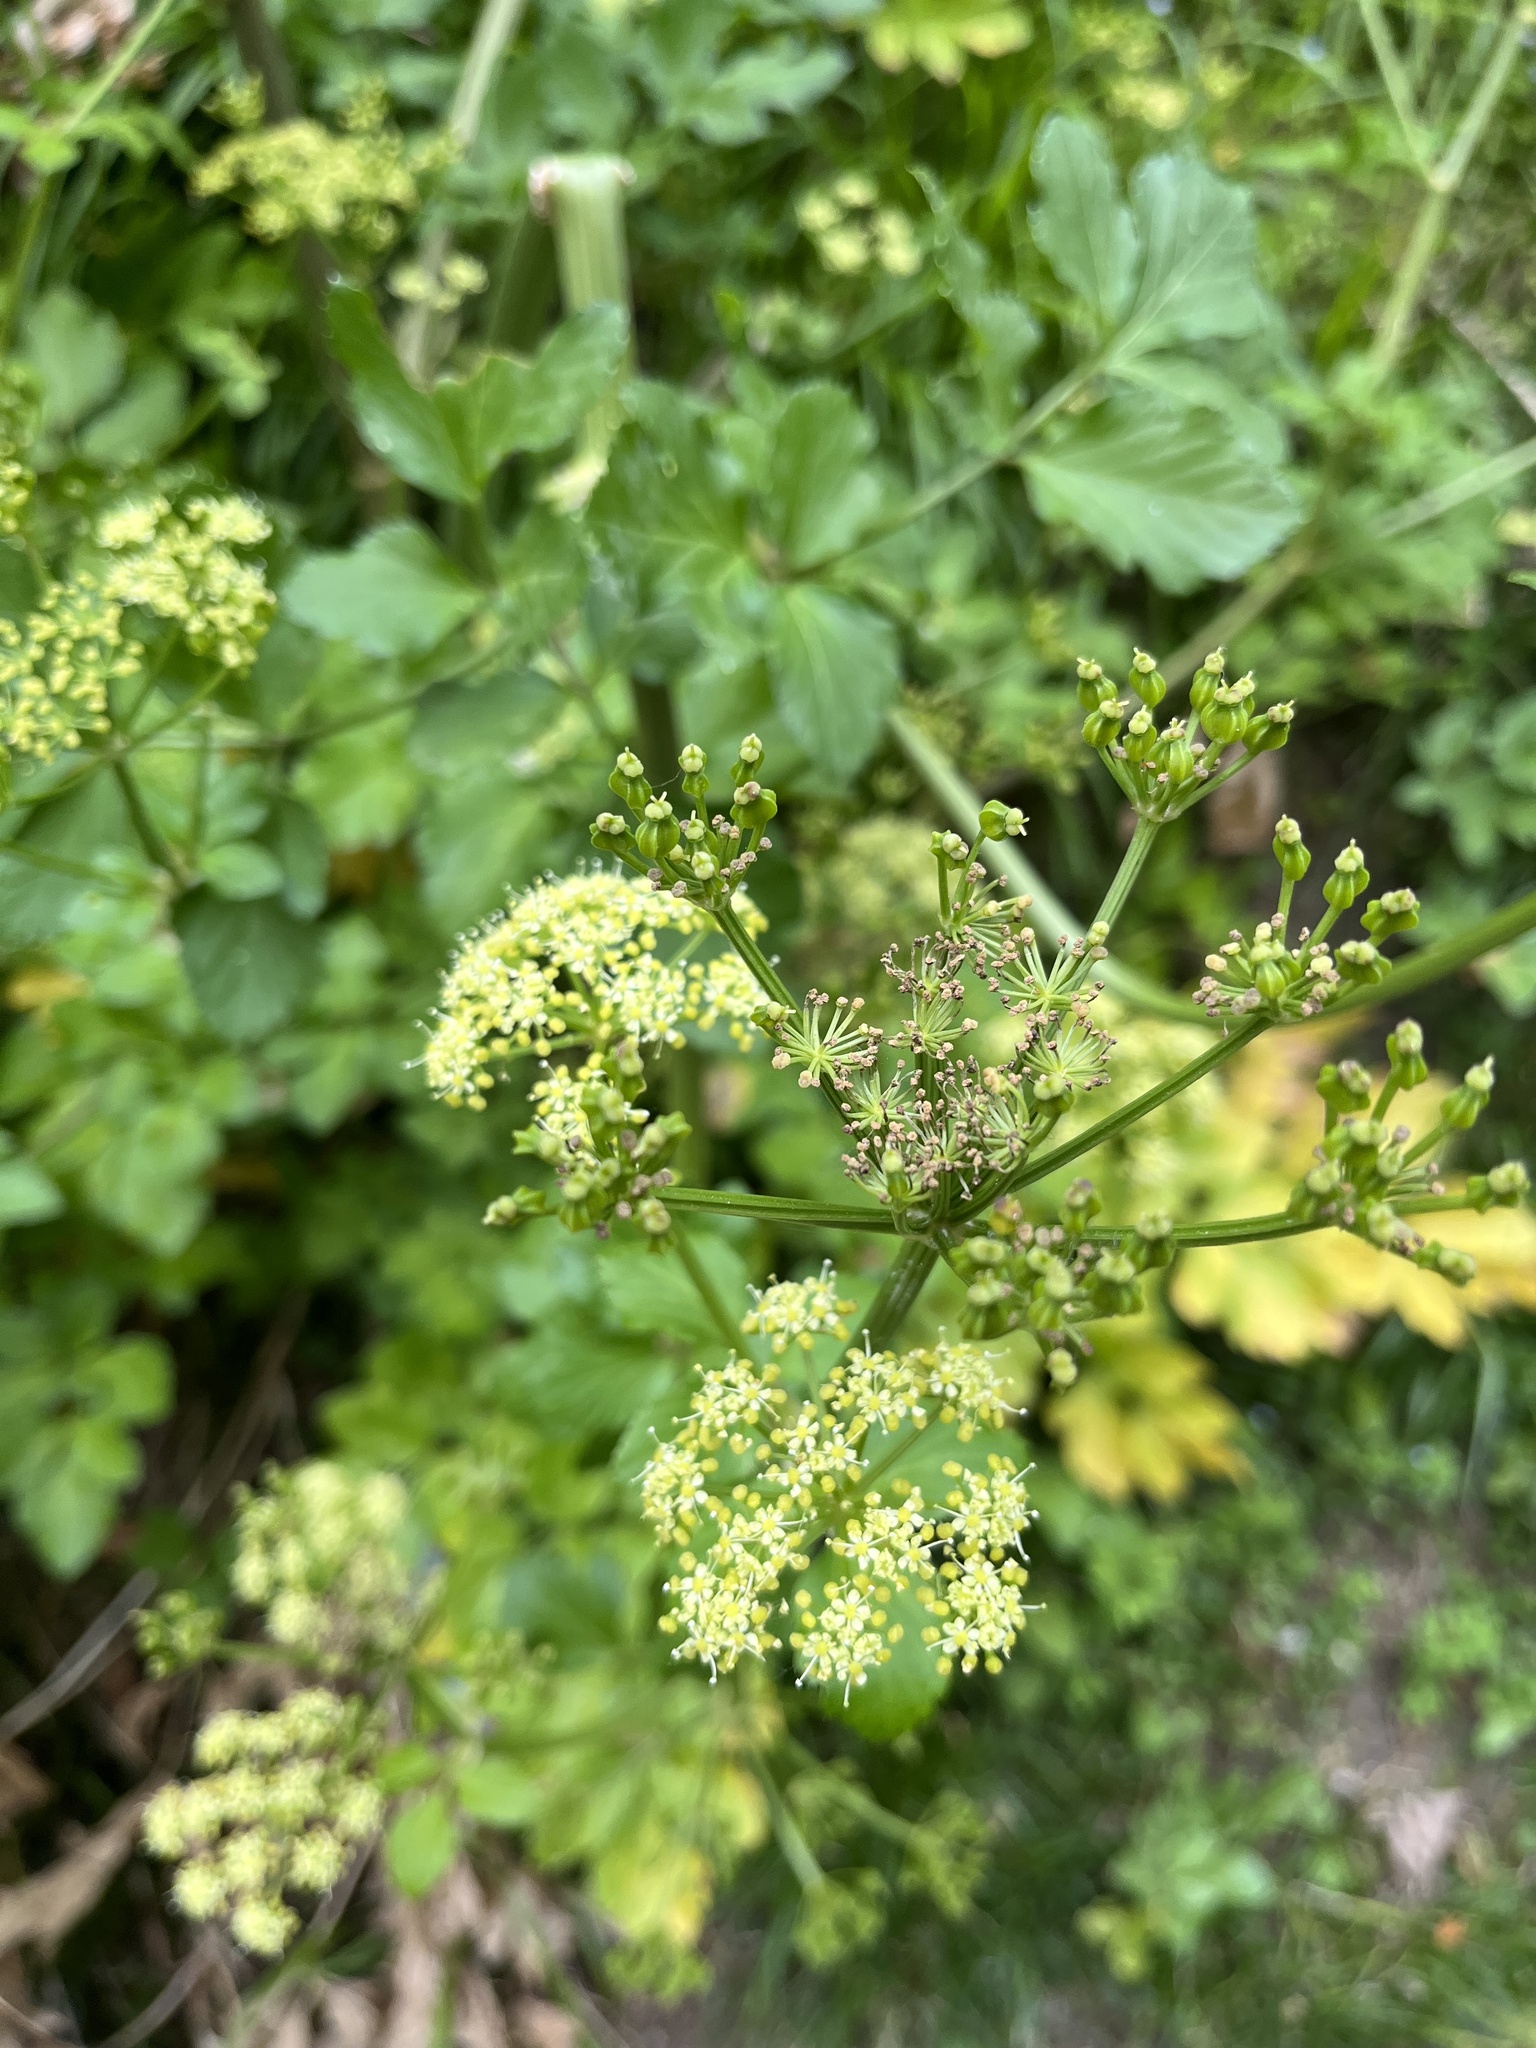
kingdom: Plantae
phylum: Tracheophyta
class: Magnoliopsida
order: Apiales
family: Apiaceae
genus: Smyrnium
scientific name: Smyrnium olusatrum
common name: Alexanders
